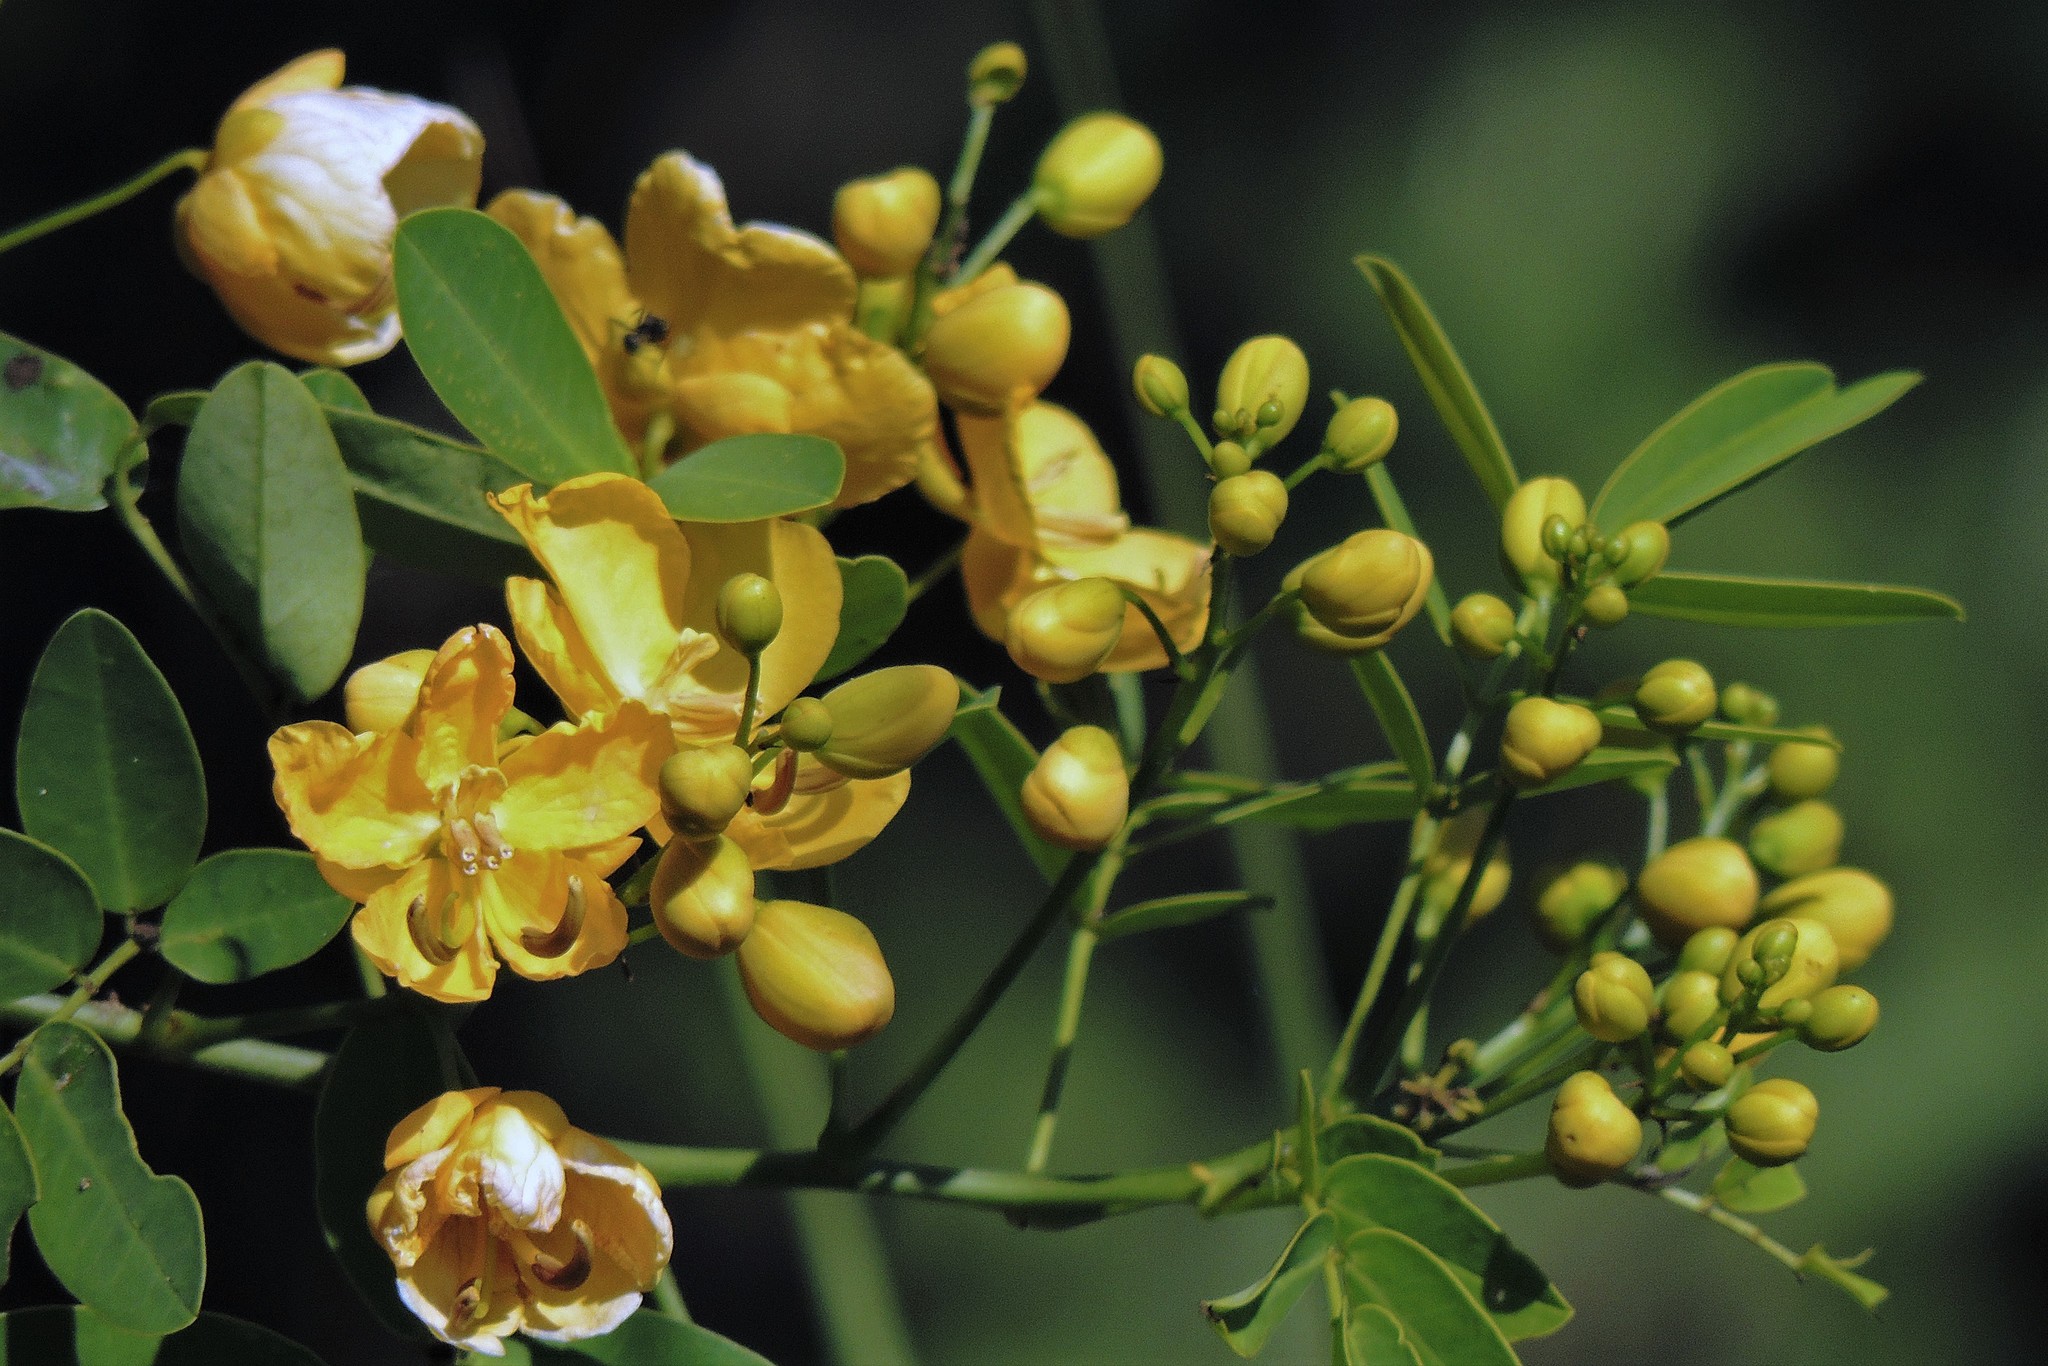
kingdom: Plantae
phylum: Tracheophyta
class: Magnoliopsida
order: Fabales
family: Fabaceae
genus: Senna
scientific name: Senna pendula
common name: Easter cassia
